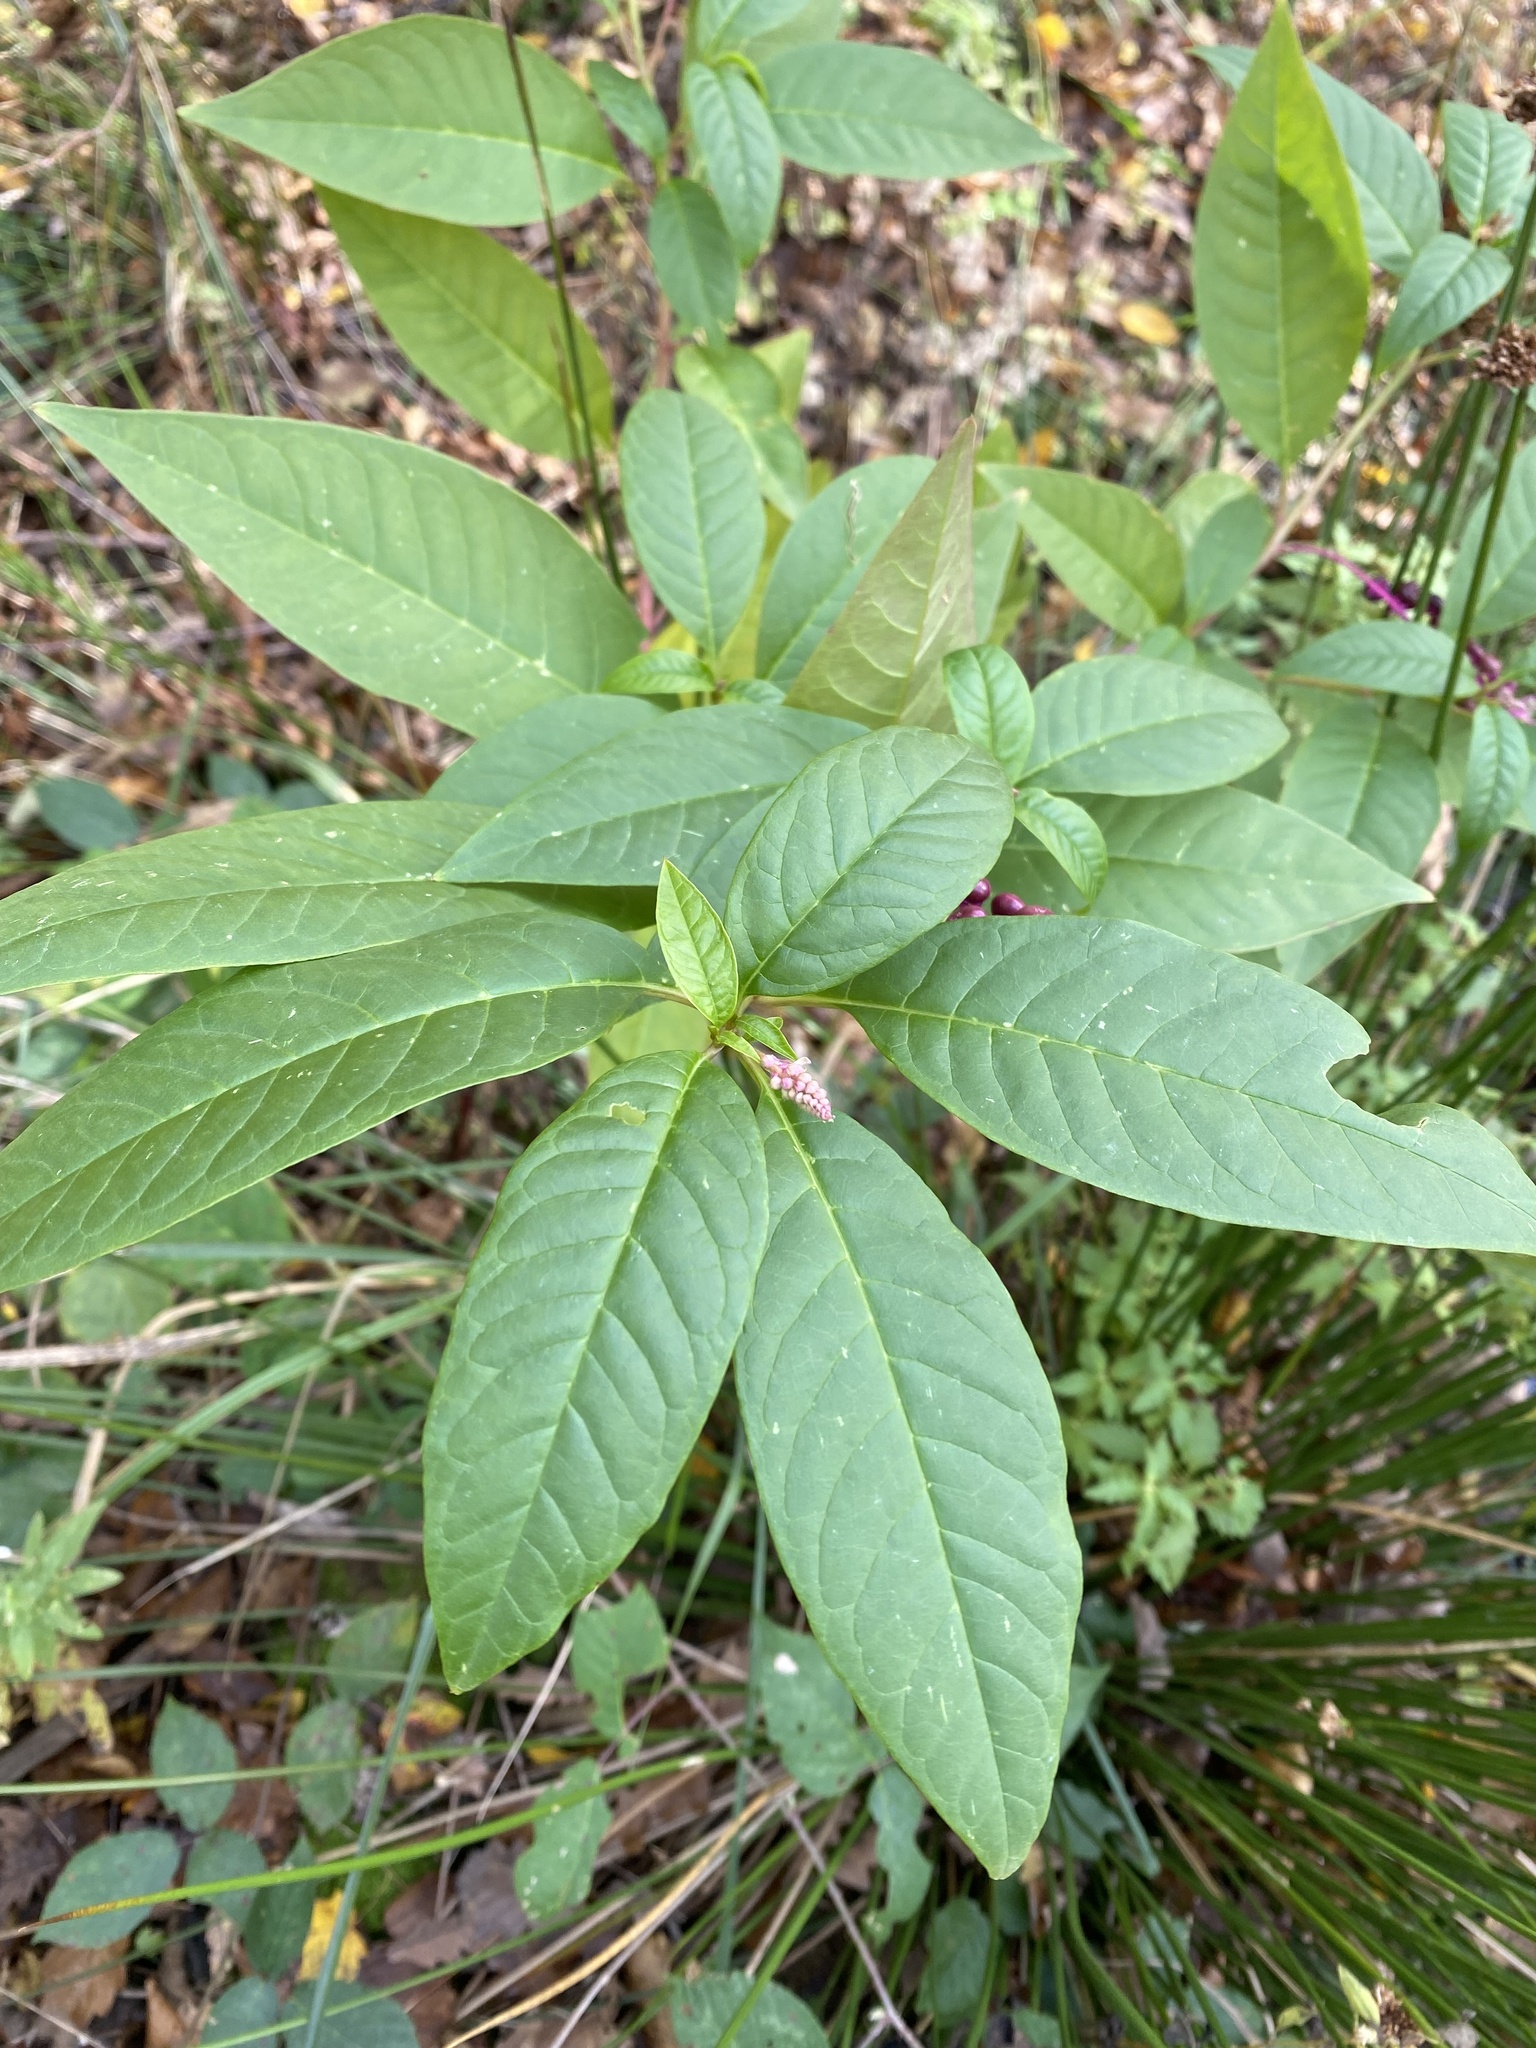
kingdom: Plantae
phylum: Tracheophyta
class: Magnoliopsida
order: Caryophyllales
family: Phytolaccaceae
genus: Phytolacca
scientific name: Phytolacca americana
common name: American pokeweed
